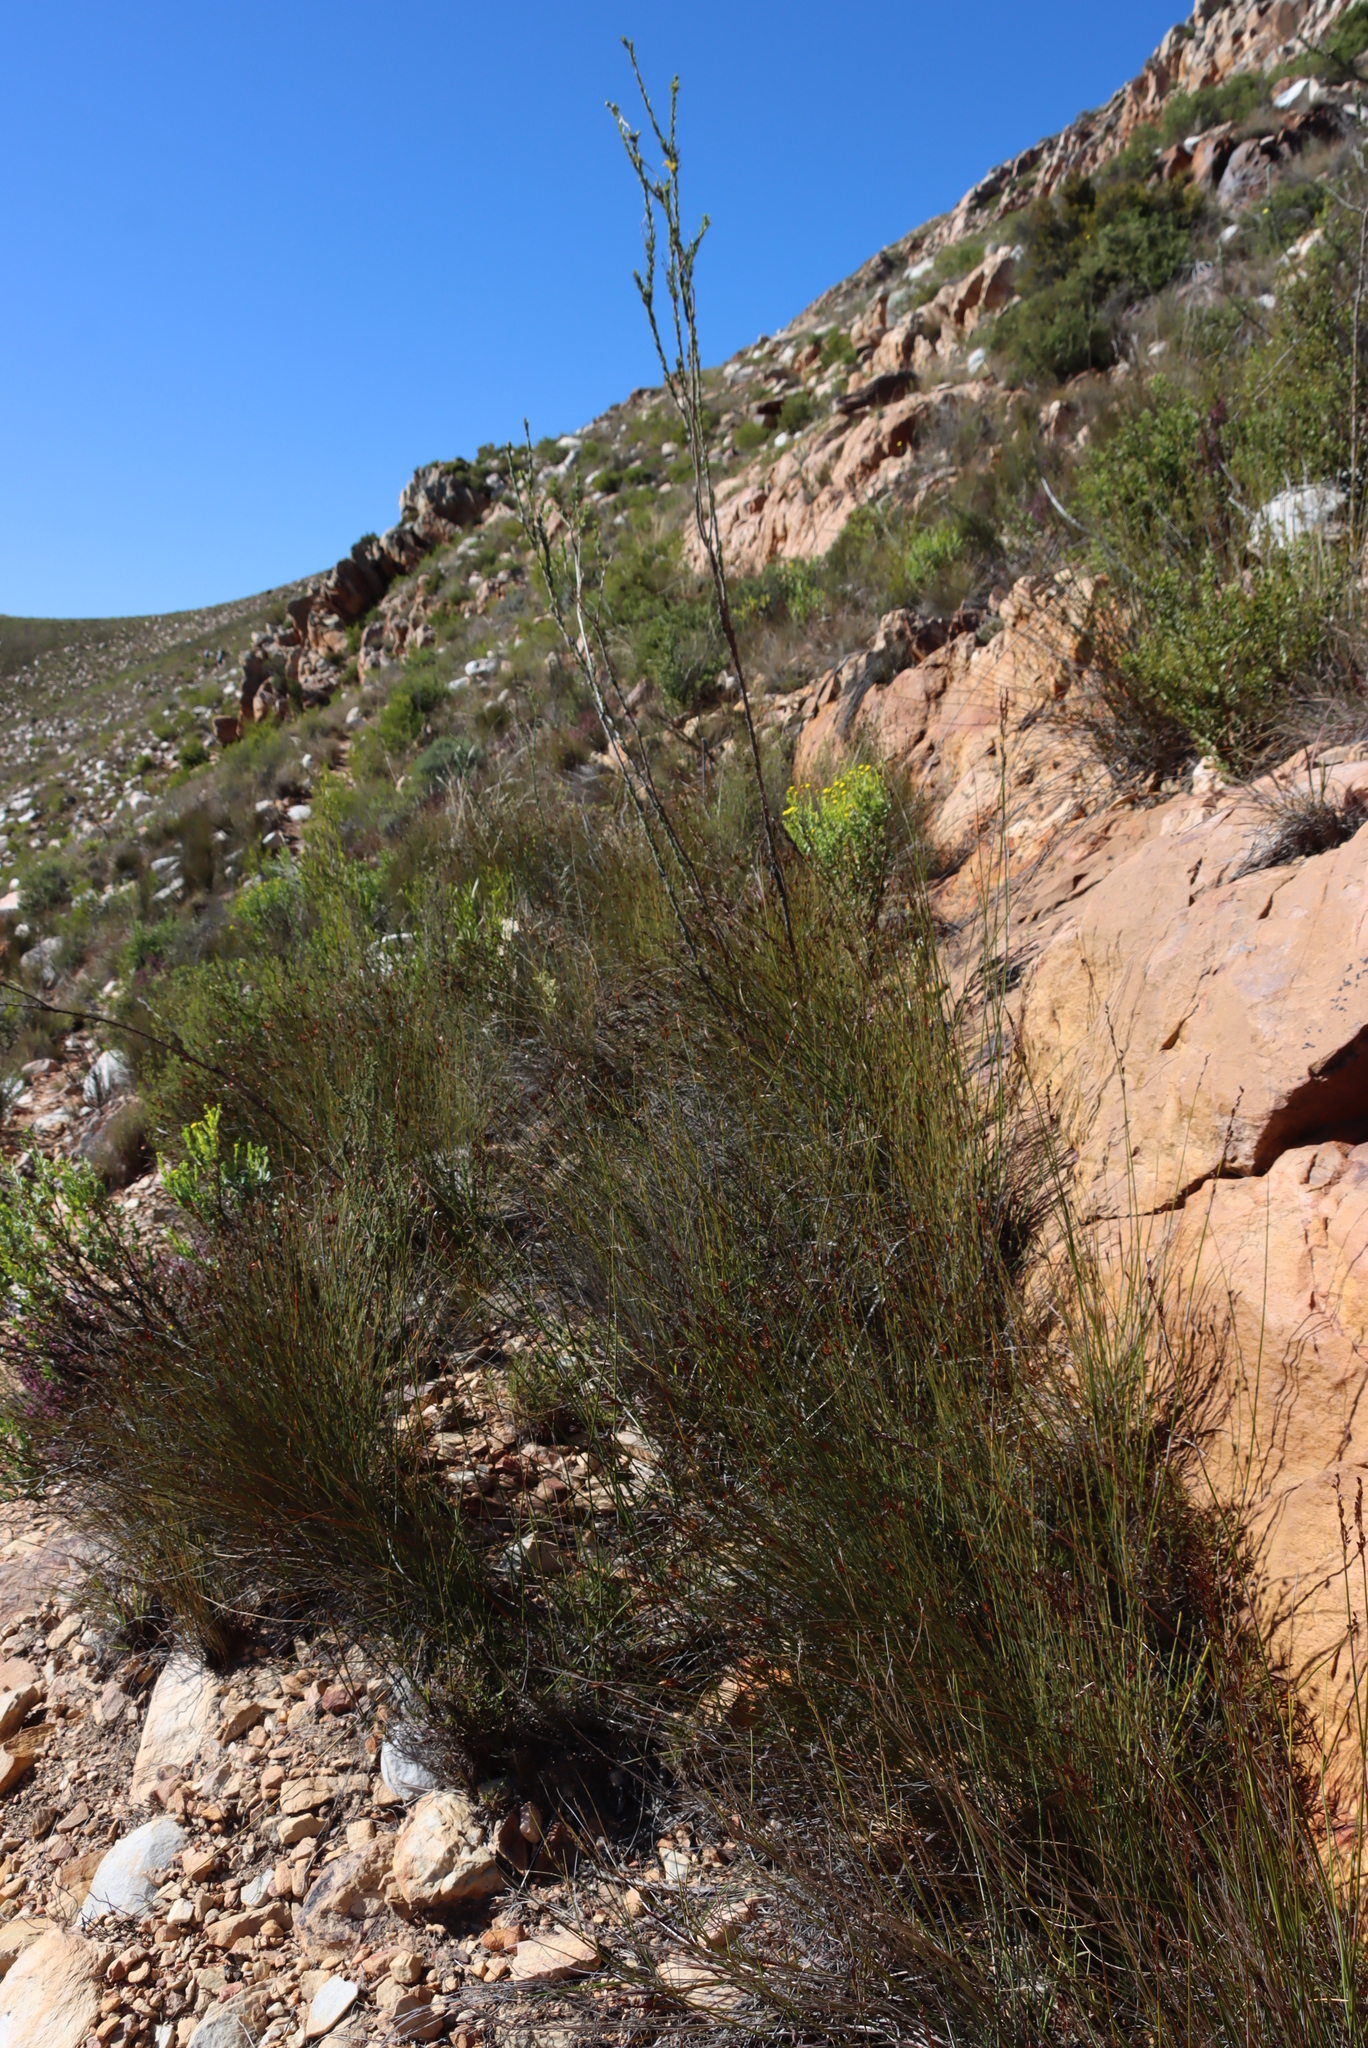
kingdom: Plantae
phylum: Tracheophyta
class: Liliopsida
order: Poales
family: Restionaceae
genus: Hypodiscus
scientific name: Hypodiscus striatus
